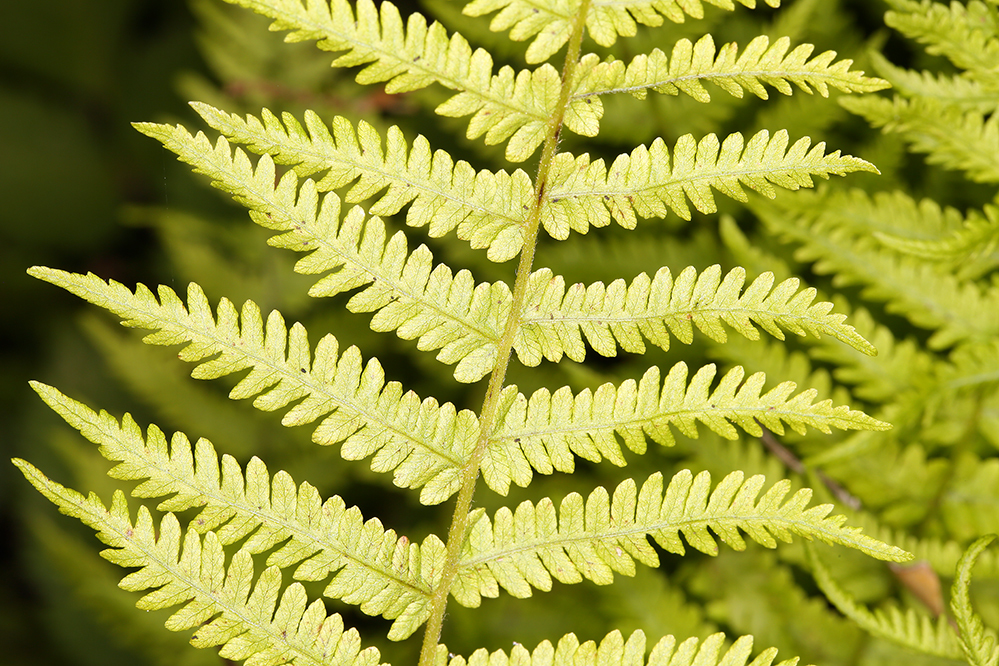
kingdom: Plantae
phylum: Tracheophyta
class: Polypodiopsida
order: Polypodiales
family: Thelypteridaceae
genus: Amauropelta
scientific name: Amauropelta nevadensis
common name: Nevada marsh fern
